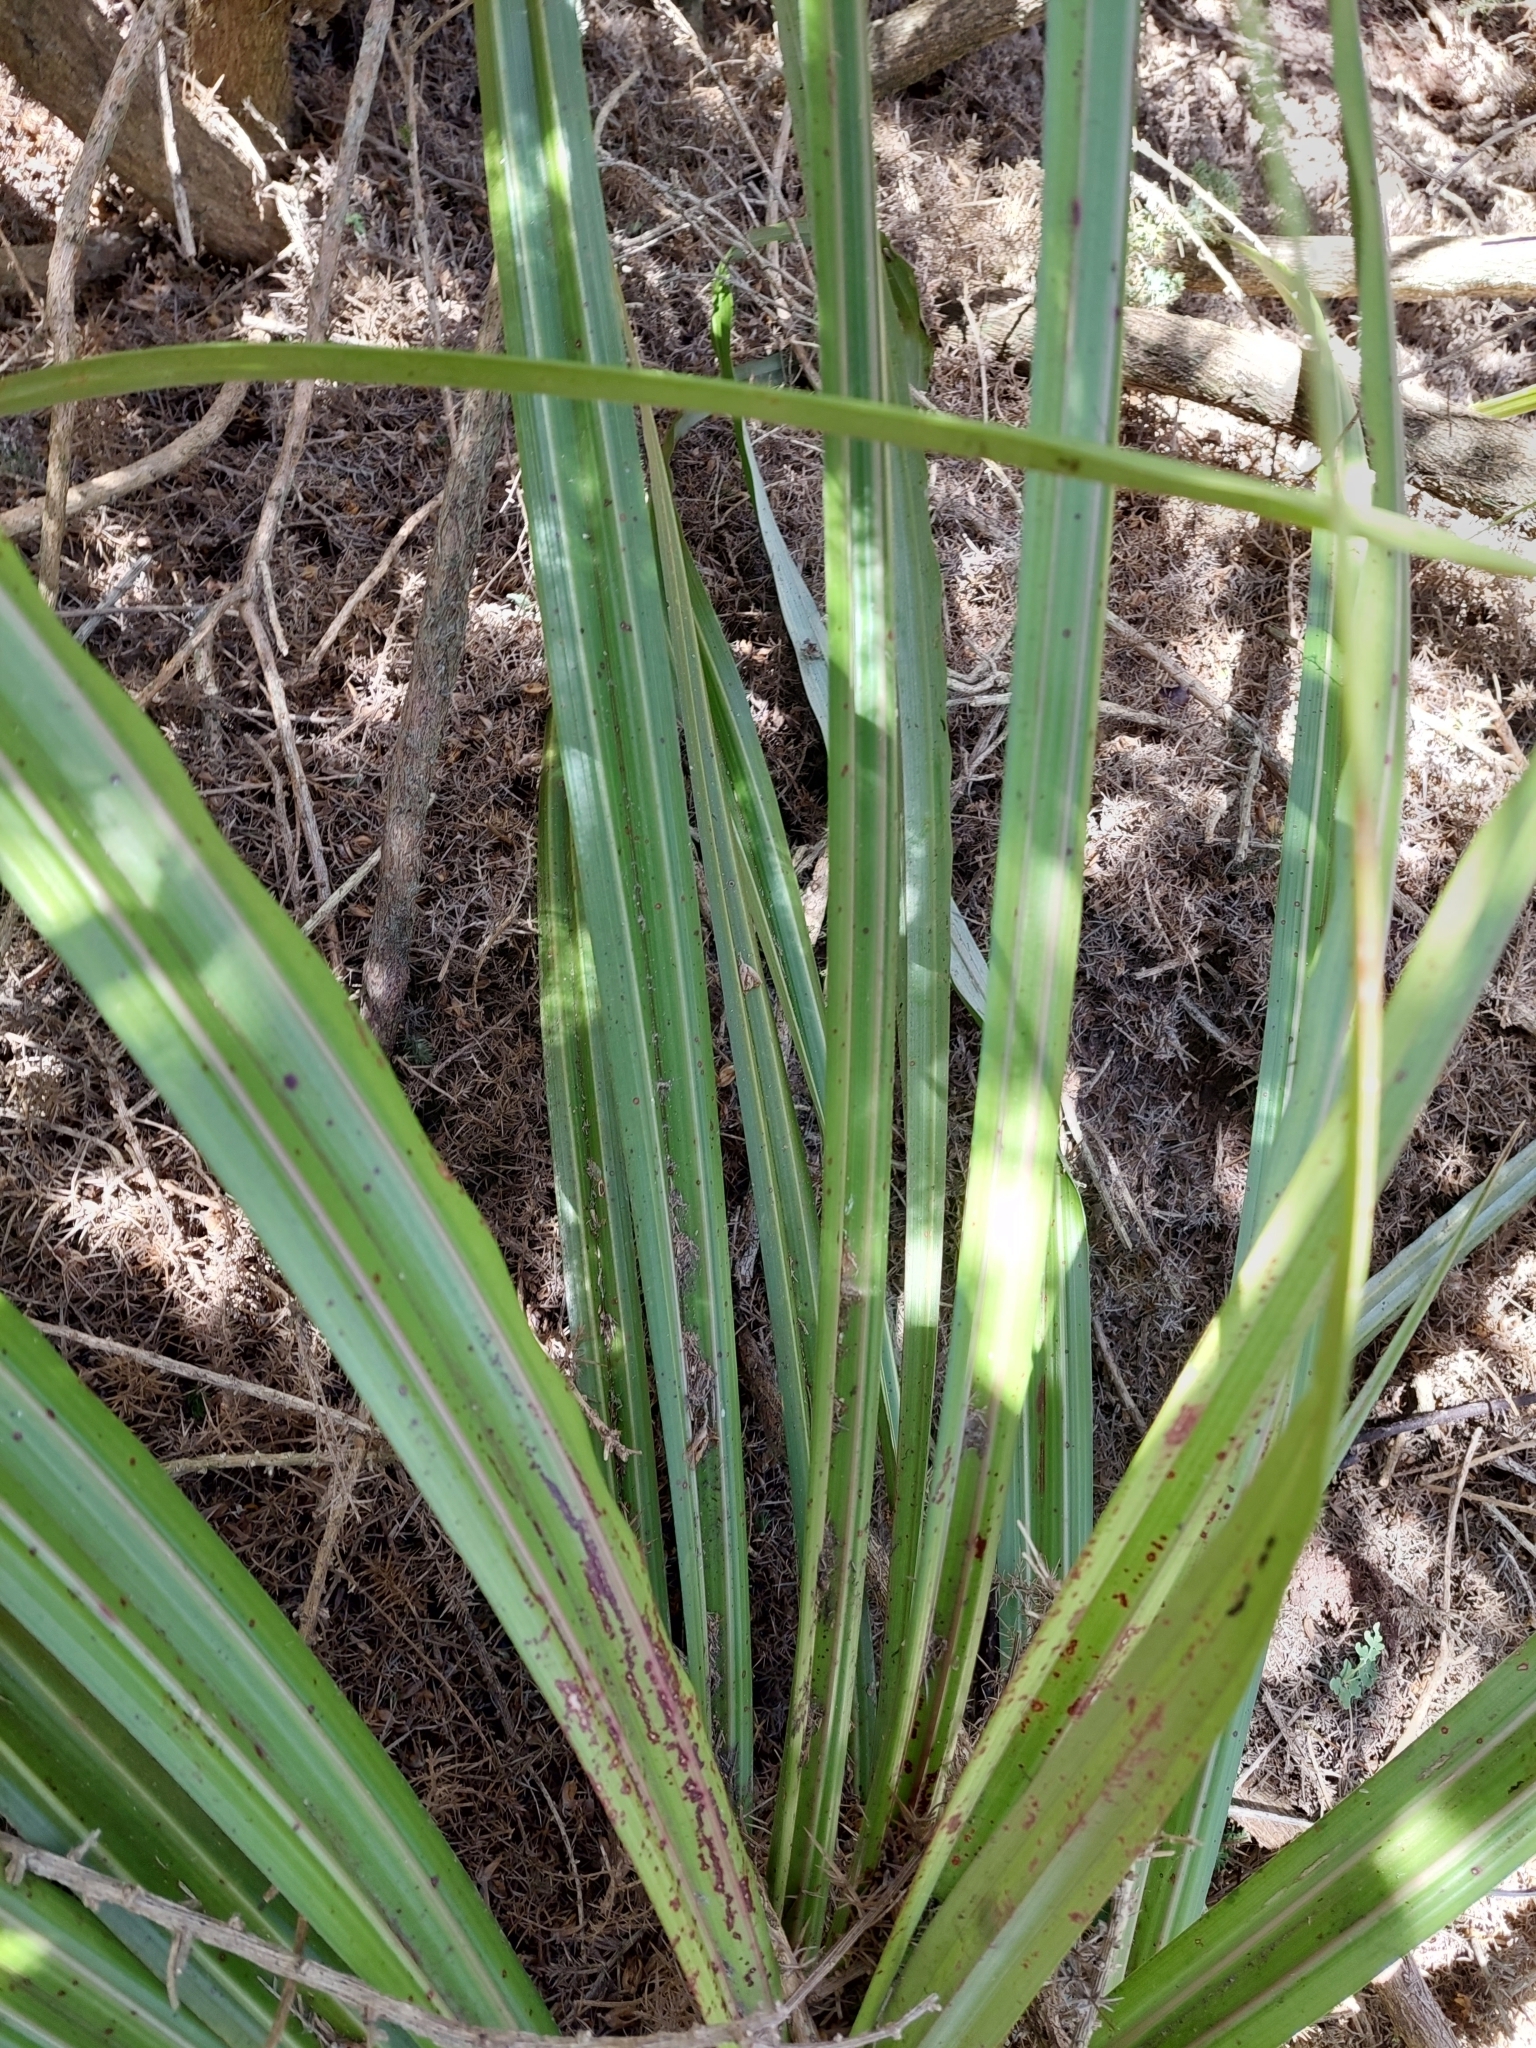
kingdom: Plantae
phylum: Tracheophyta
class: Liliopsida
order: Asparagales
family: Asteliaceae
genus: Astelia
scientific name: Astelia fragrans
